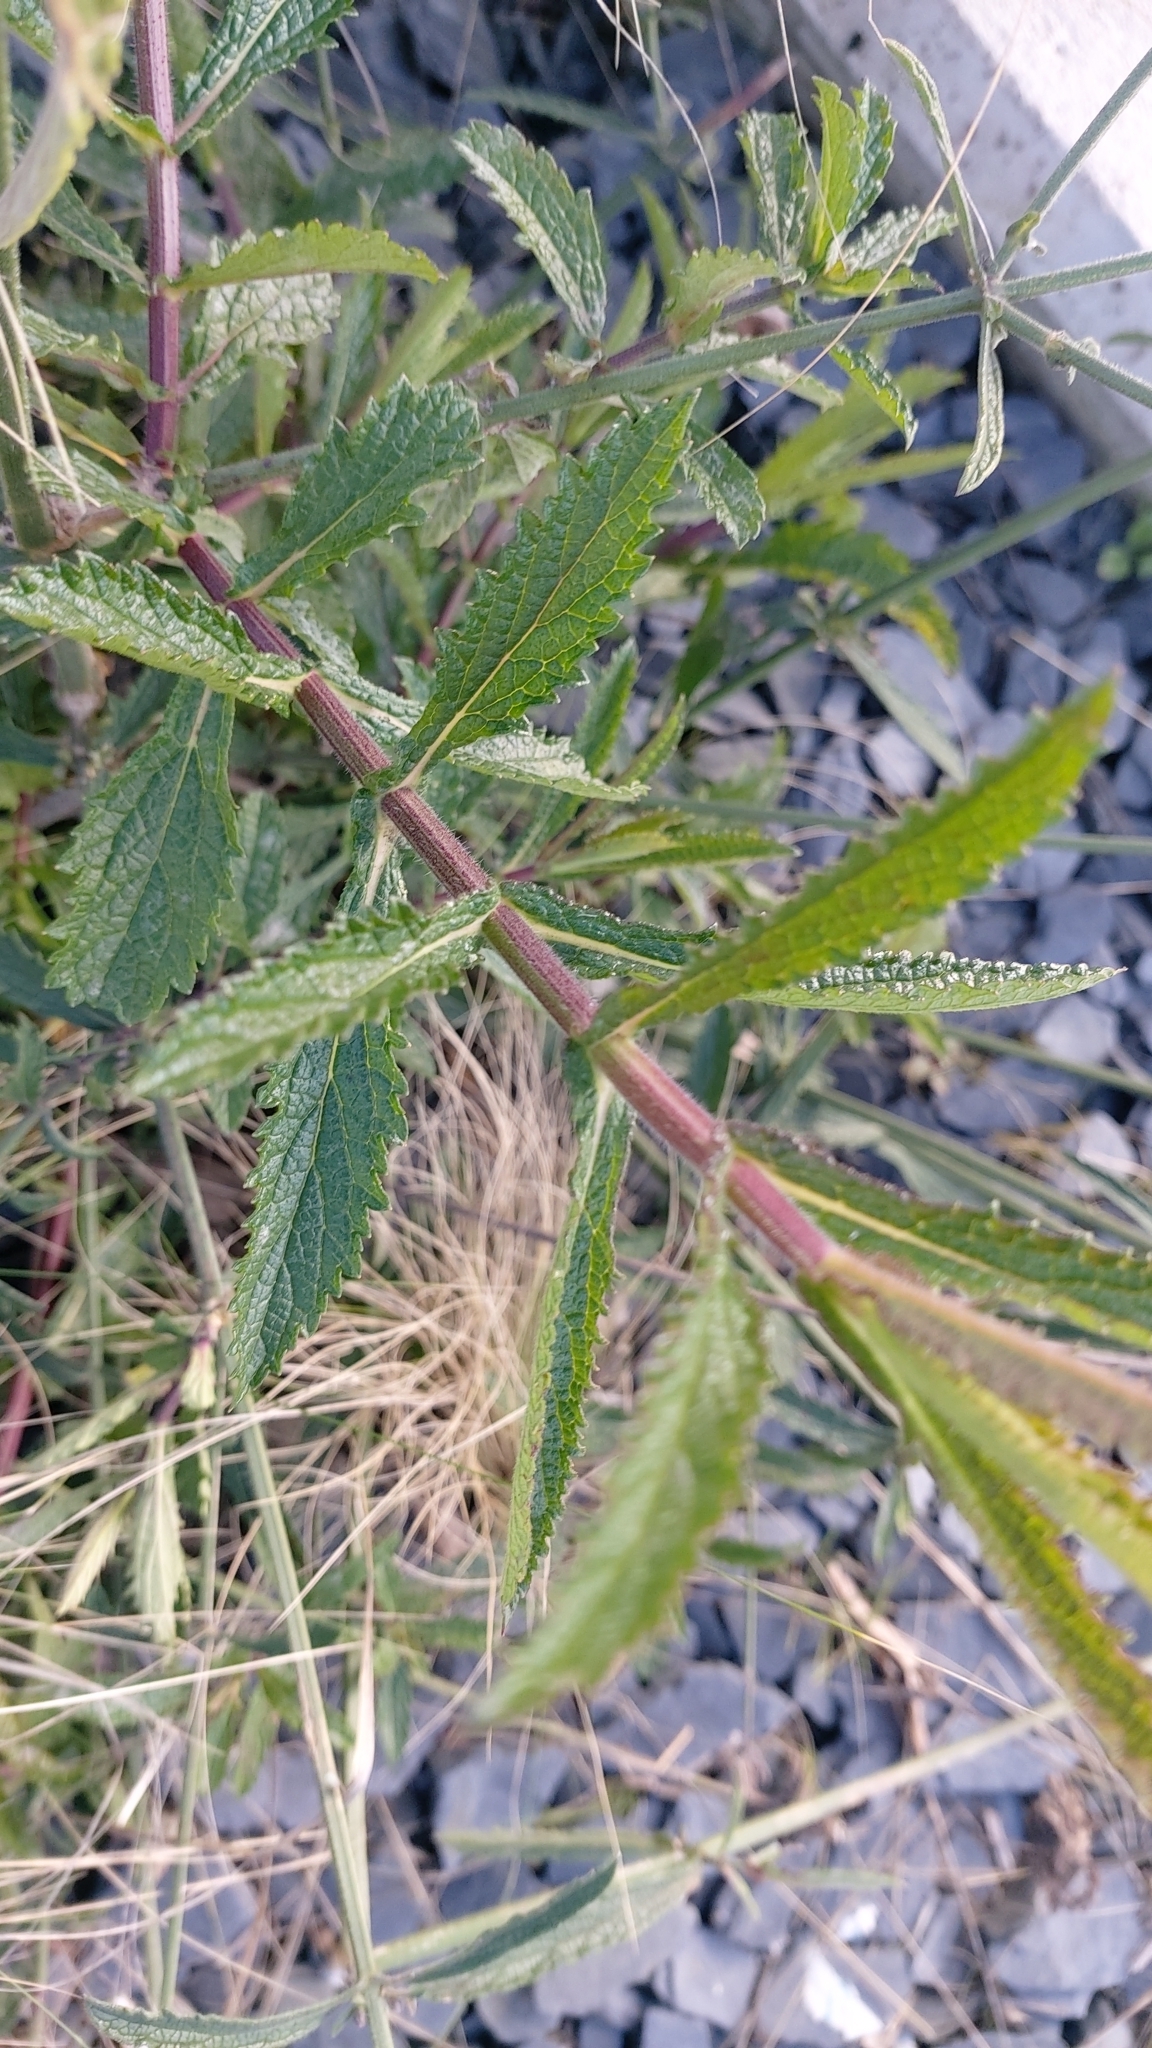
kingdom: Plantae
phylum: Tracheophyta
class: Magnoliopsida
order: Lamiales
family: Verbenaceae
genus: Verbena
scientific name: Verbena bonariensis
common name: Purpletop vervain
